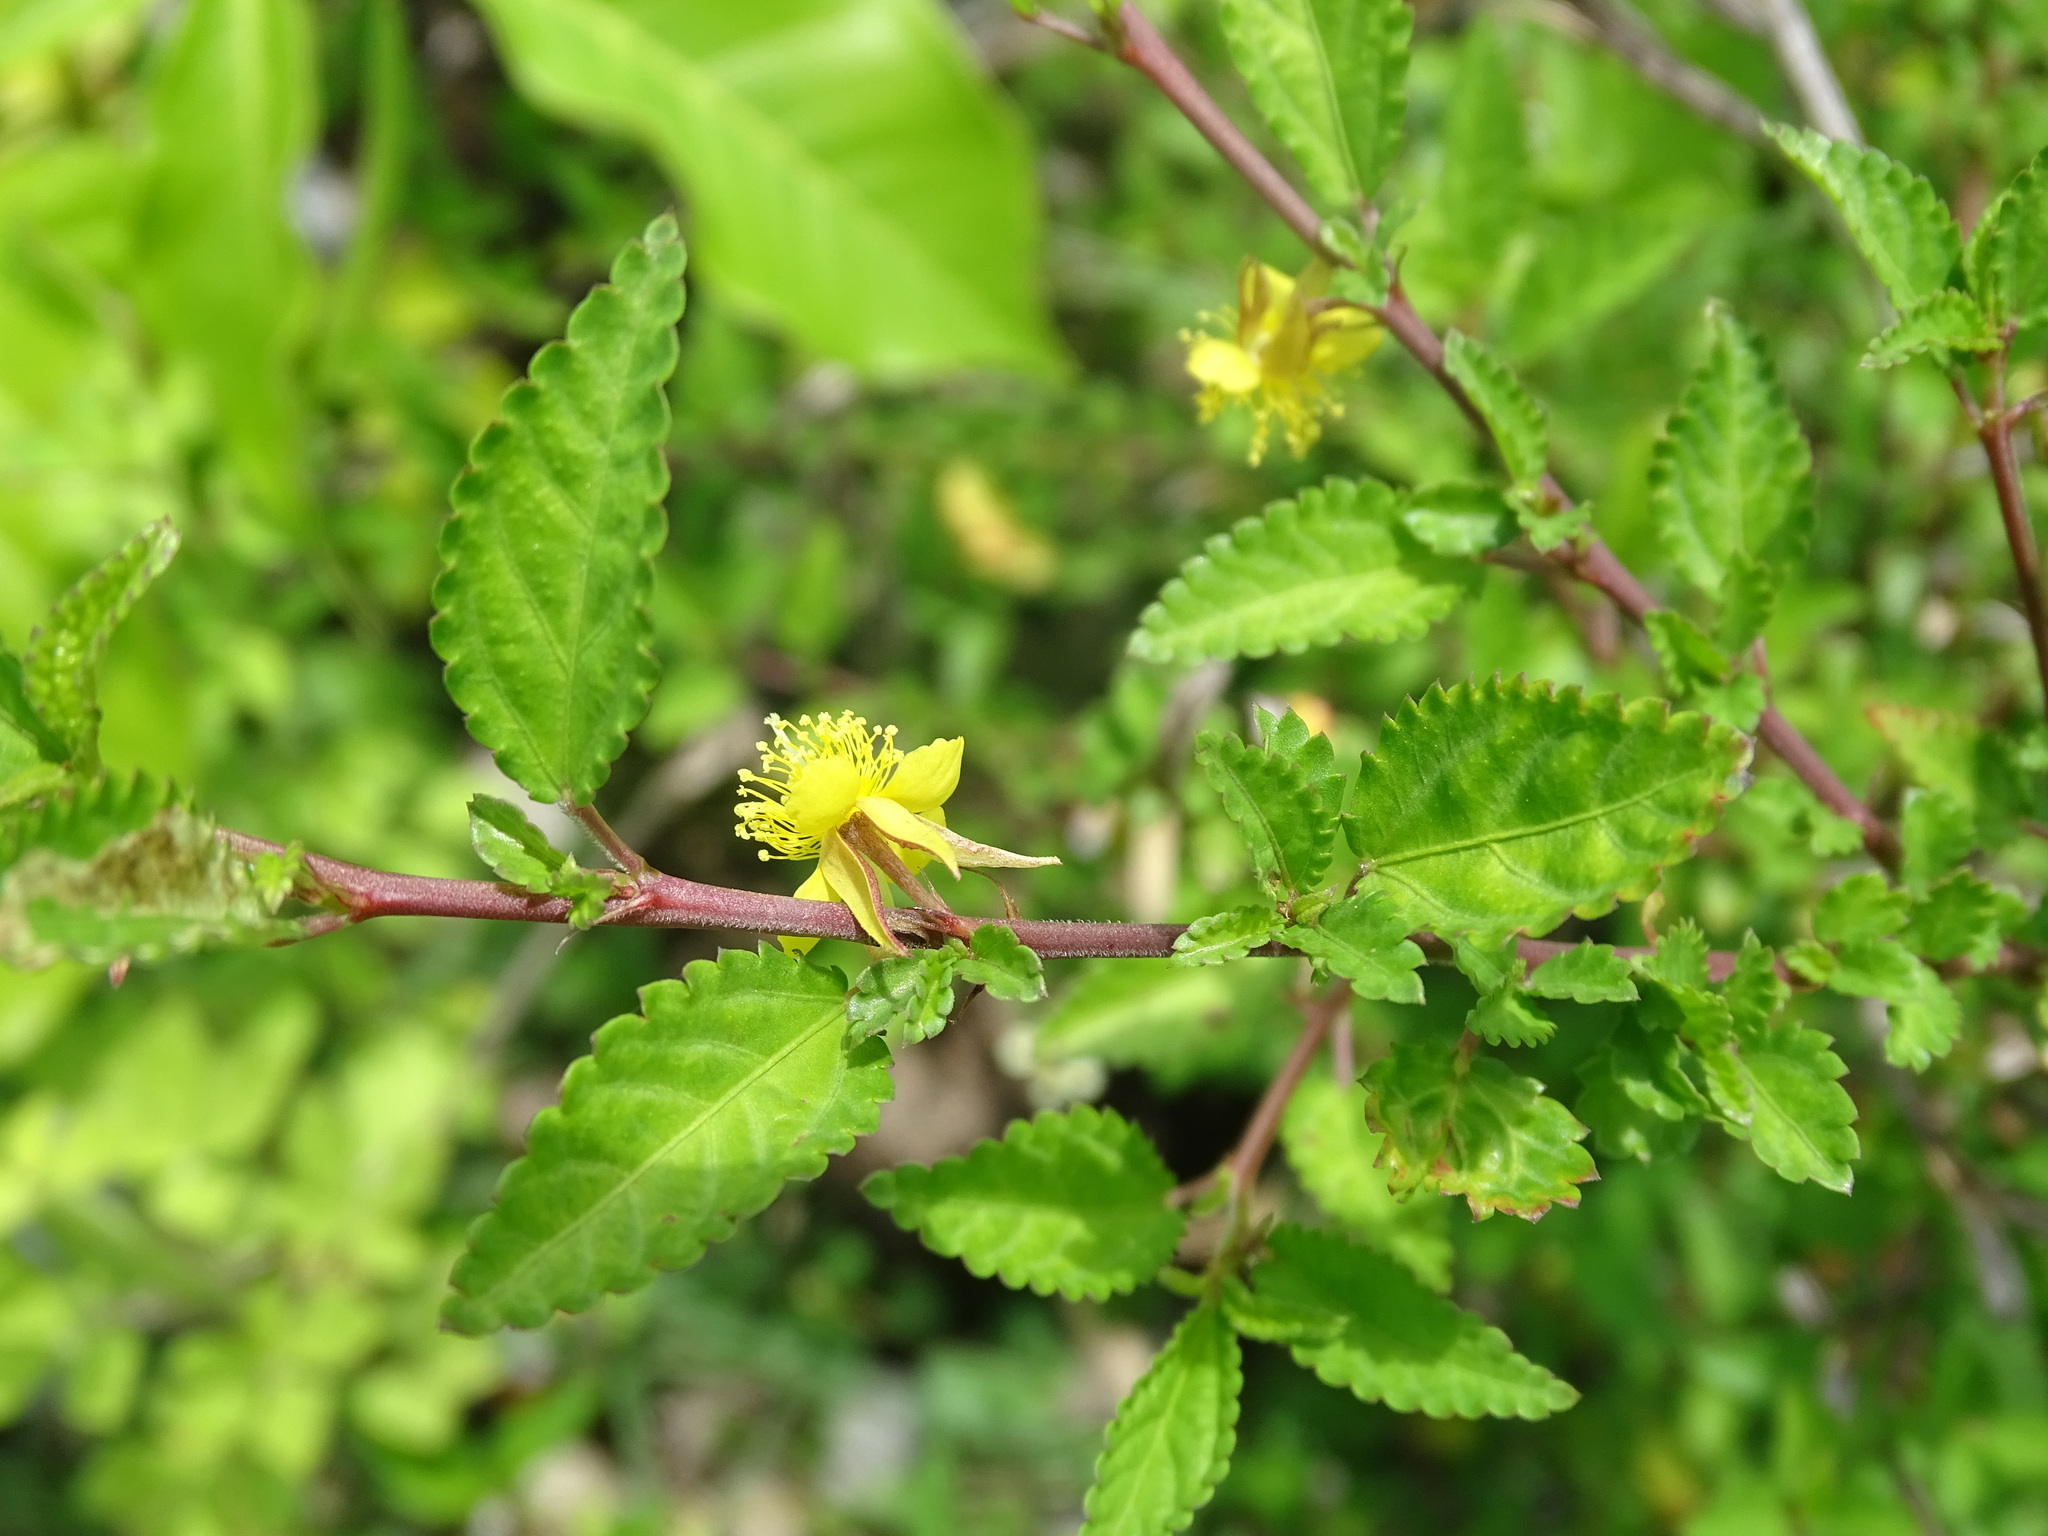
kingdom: Plantae
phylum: Tracheophyta
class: Magnoliopsida
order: Malvales
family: Malvaceae
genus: Corchorus
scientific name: Corchorus siliquosus
